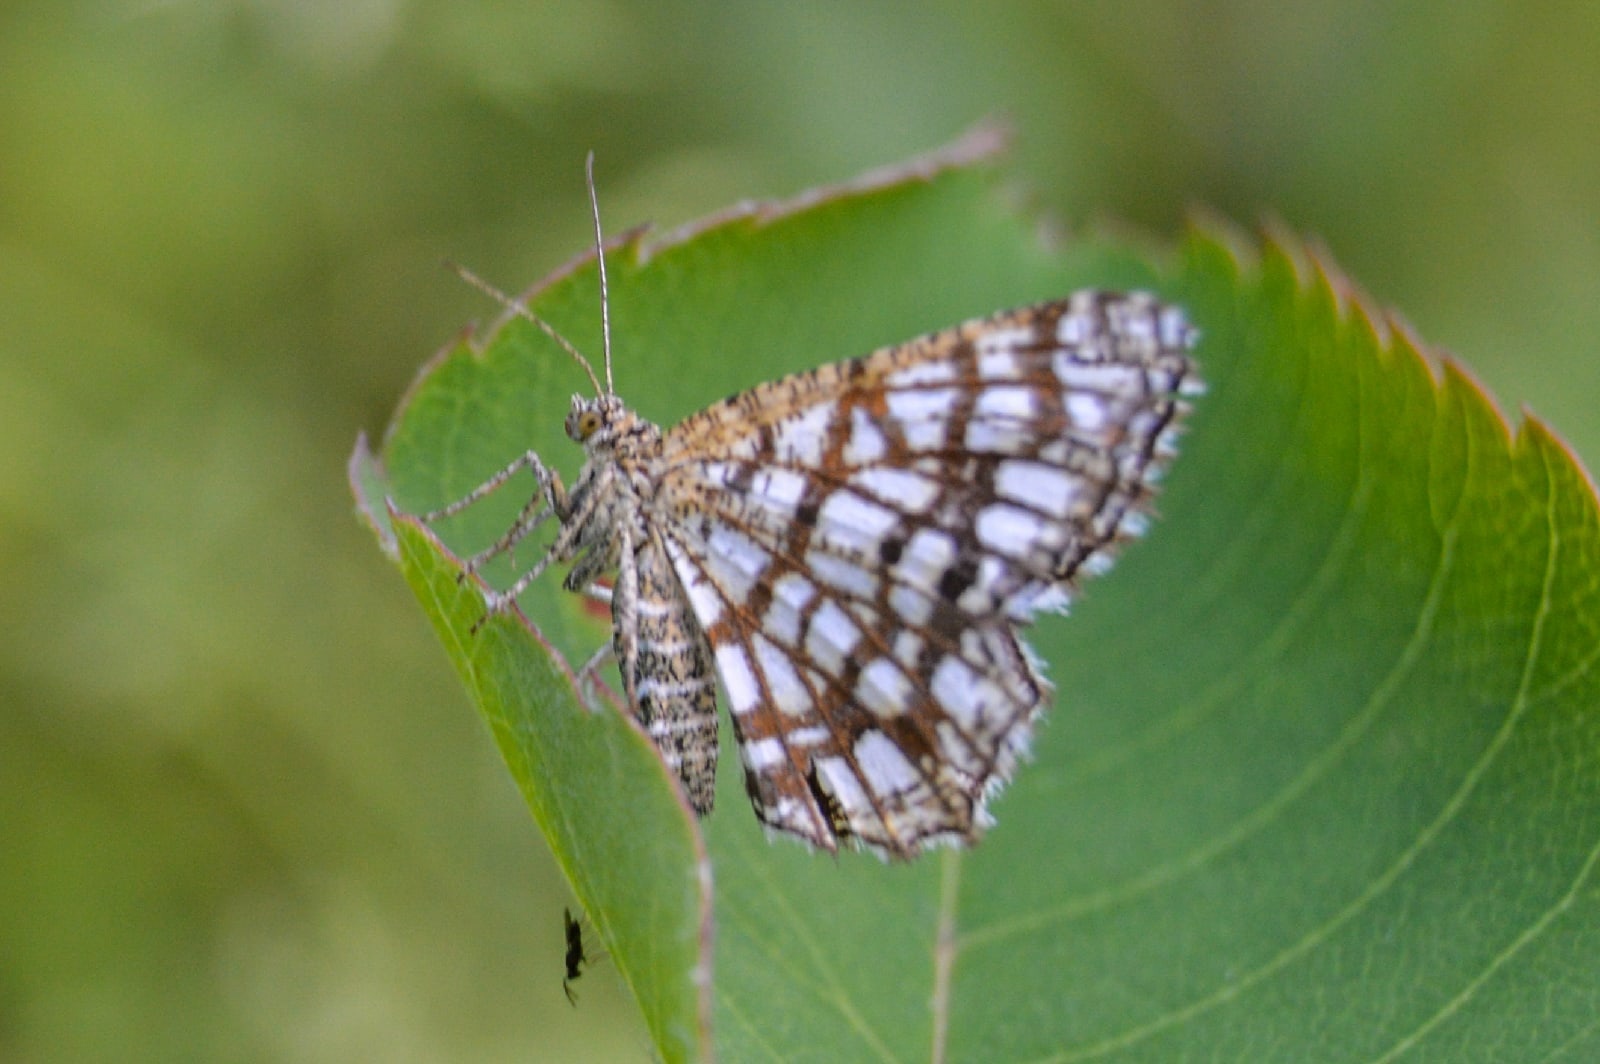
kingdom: Animalia
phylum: Arthropoda
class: Insecta
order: Lepidoptera
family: Geometridae
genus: Chiasmia
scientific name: Chiasmia clathrata
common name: Latticed heath
